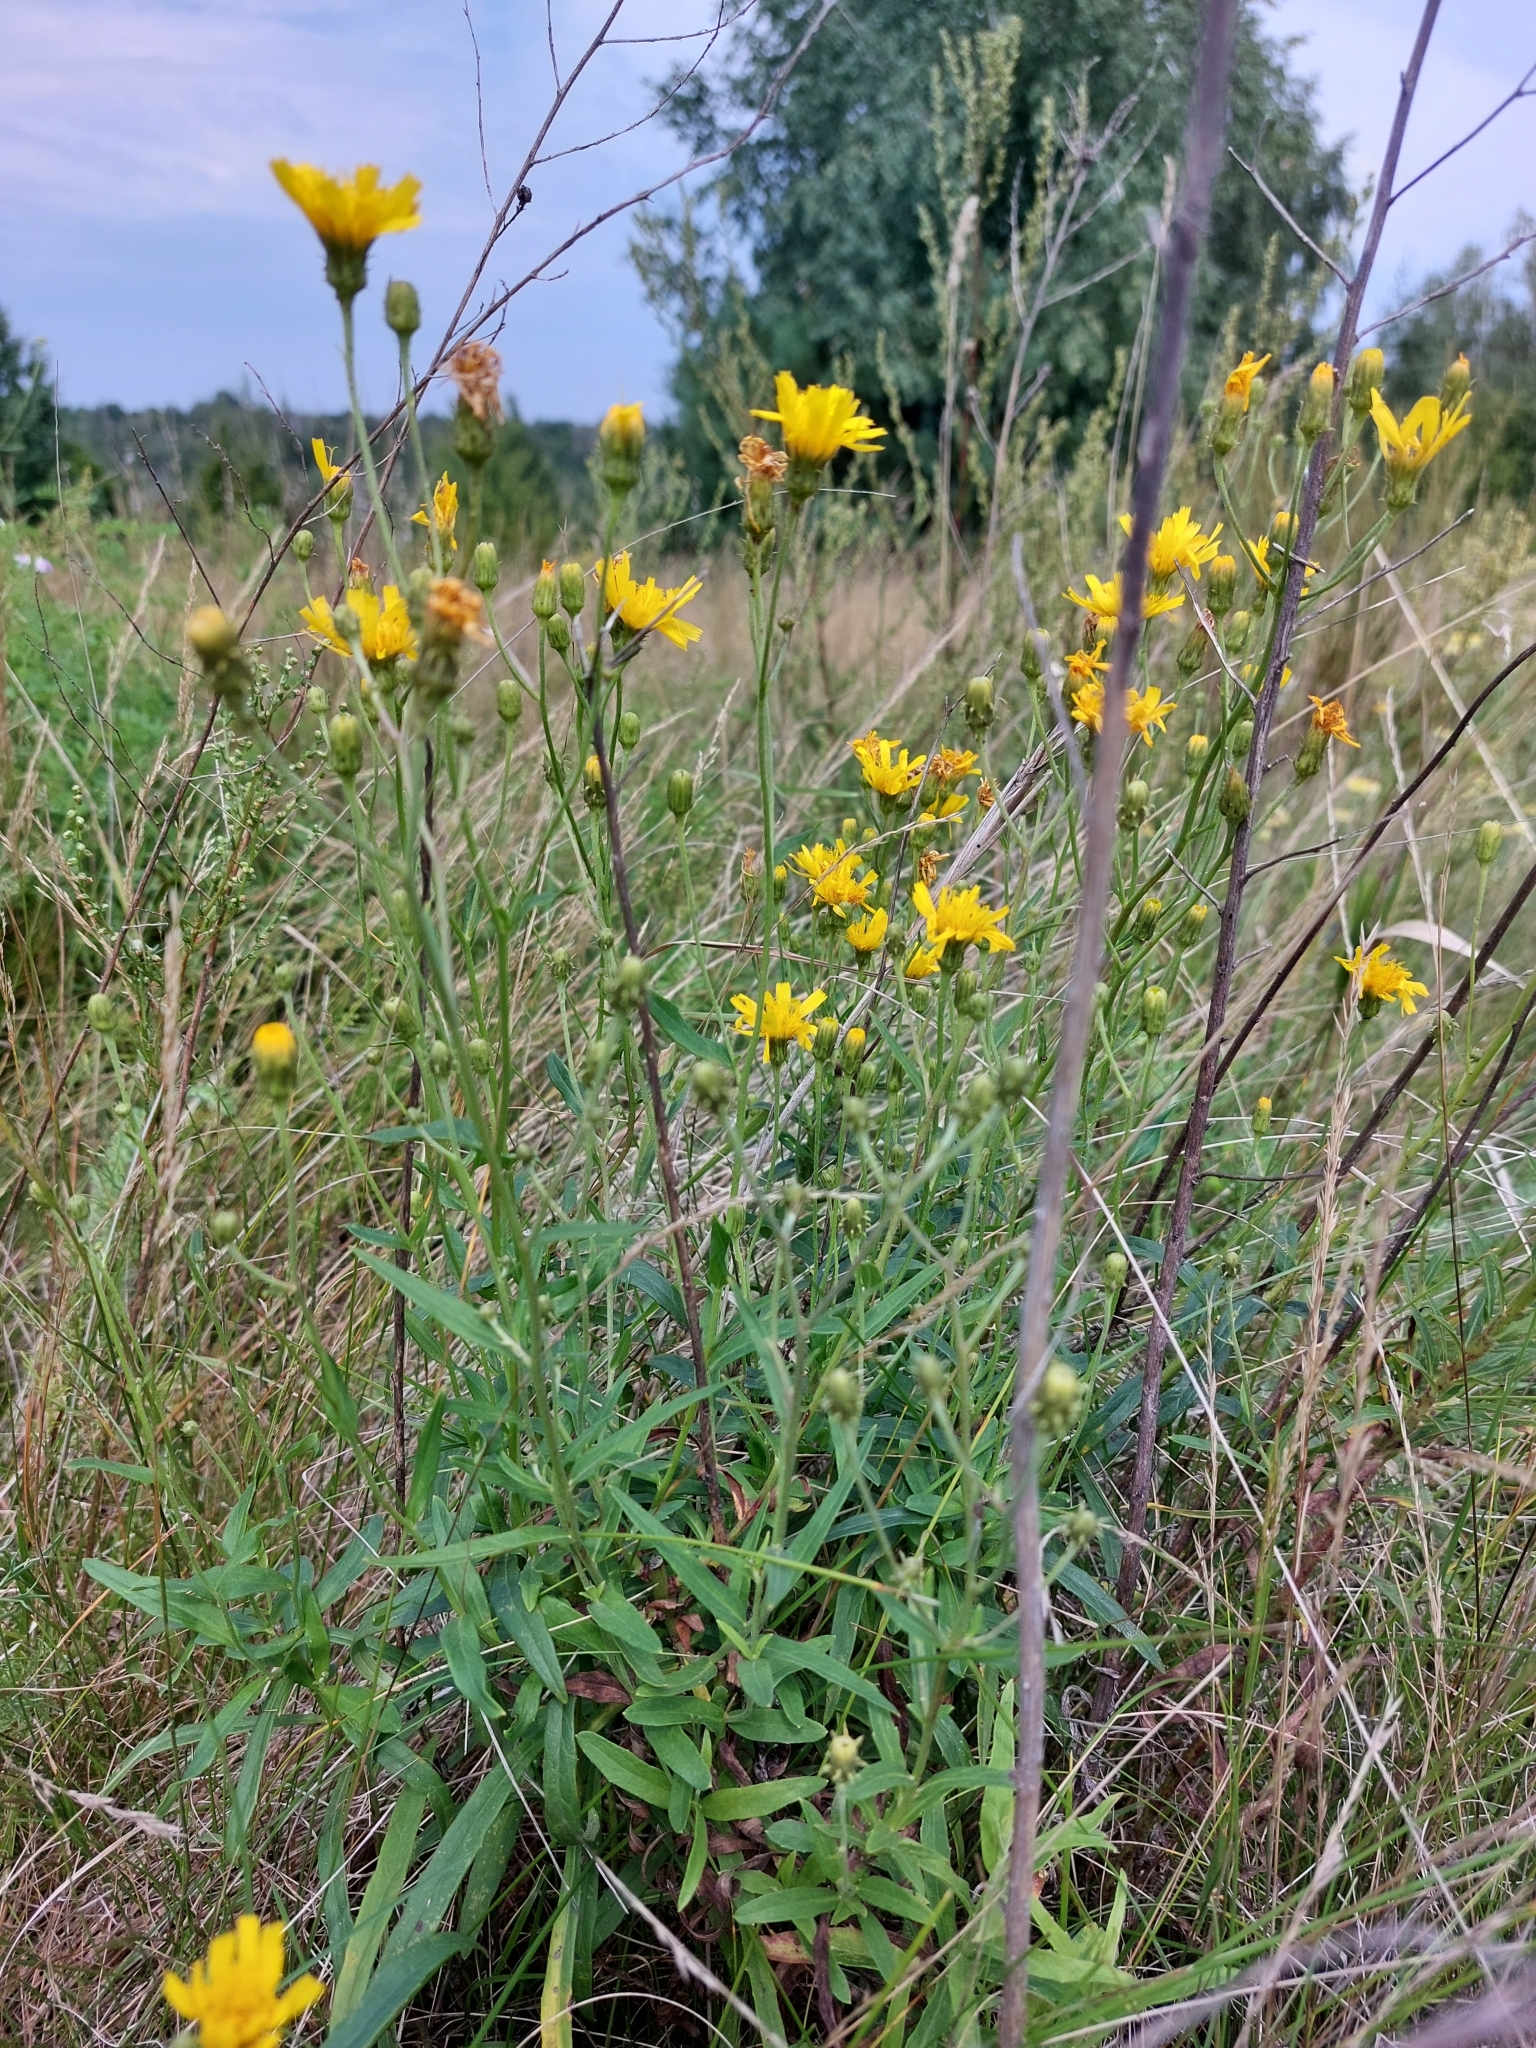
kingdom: Plantae
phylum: Tracheophyta
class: Magnoliopsida
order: Asterales
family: Asteraceae
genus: Hieracium
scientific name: Hieracium umbellatum
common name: Northern hawkweed
